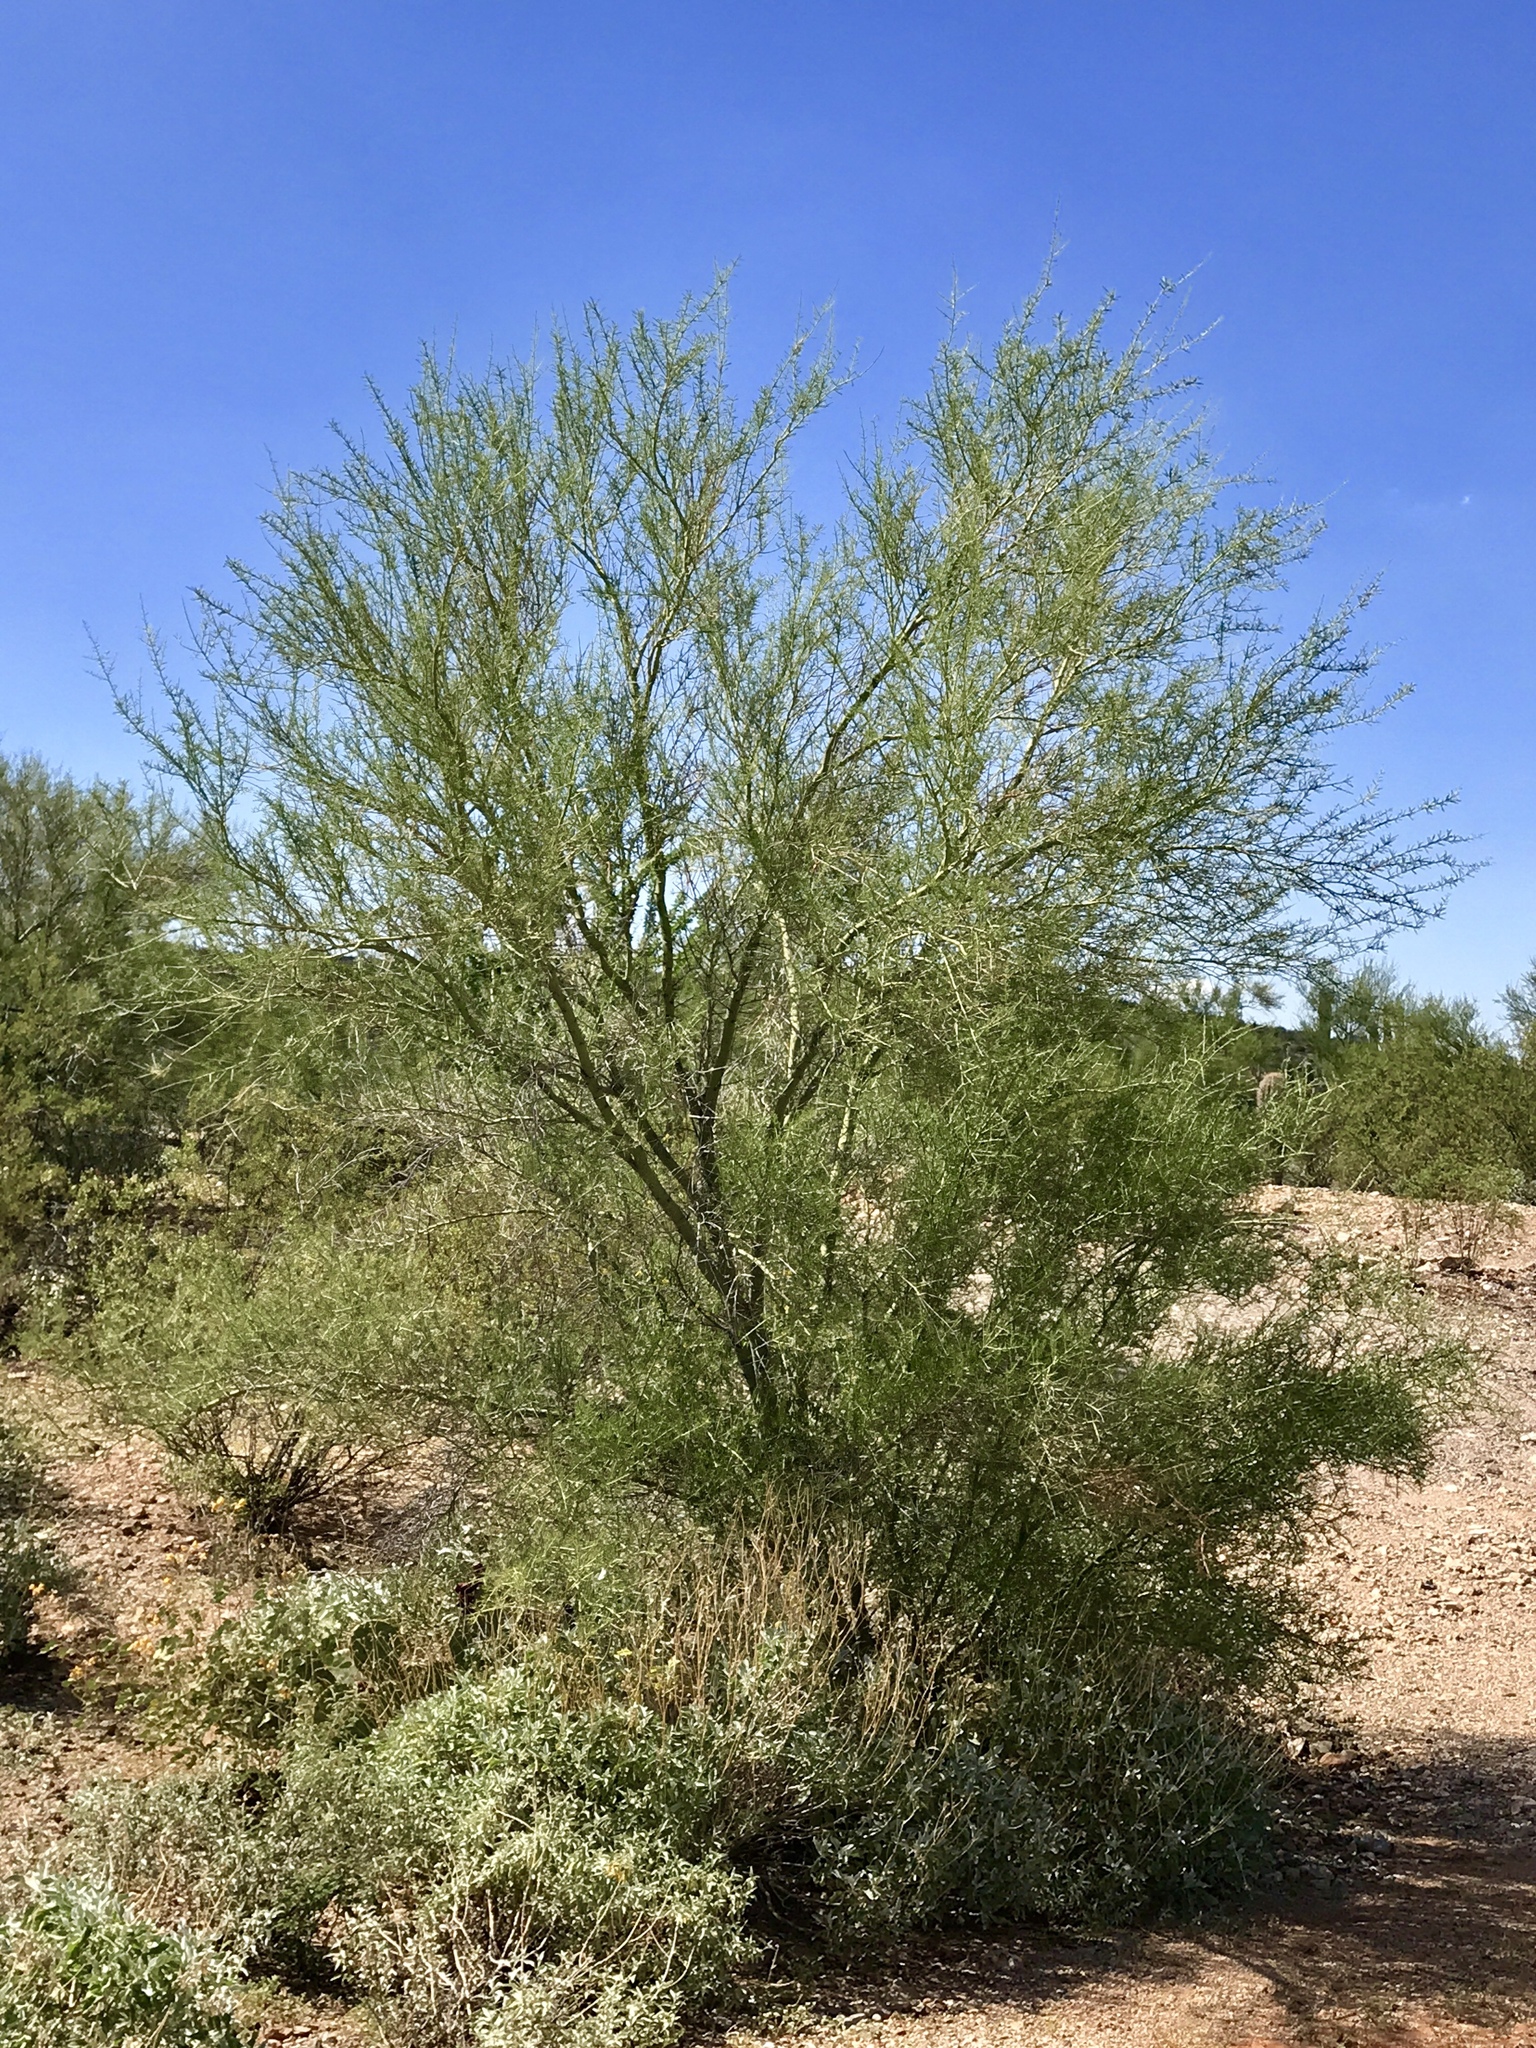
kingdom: Plantae
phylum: Tracheophyta
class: Magnoliopsida
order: Fabales
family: Fabaceae
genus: Parkinsonia
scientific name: Parkinsonia microphylla
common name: Yellow paloverde
